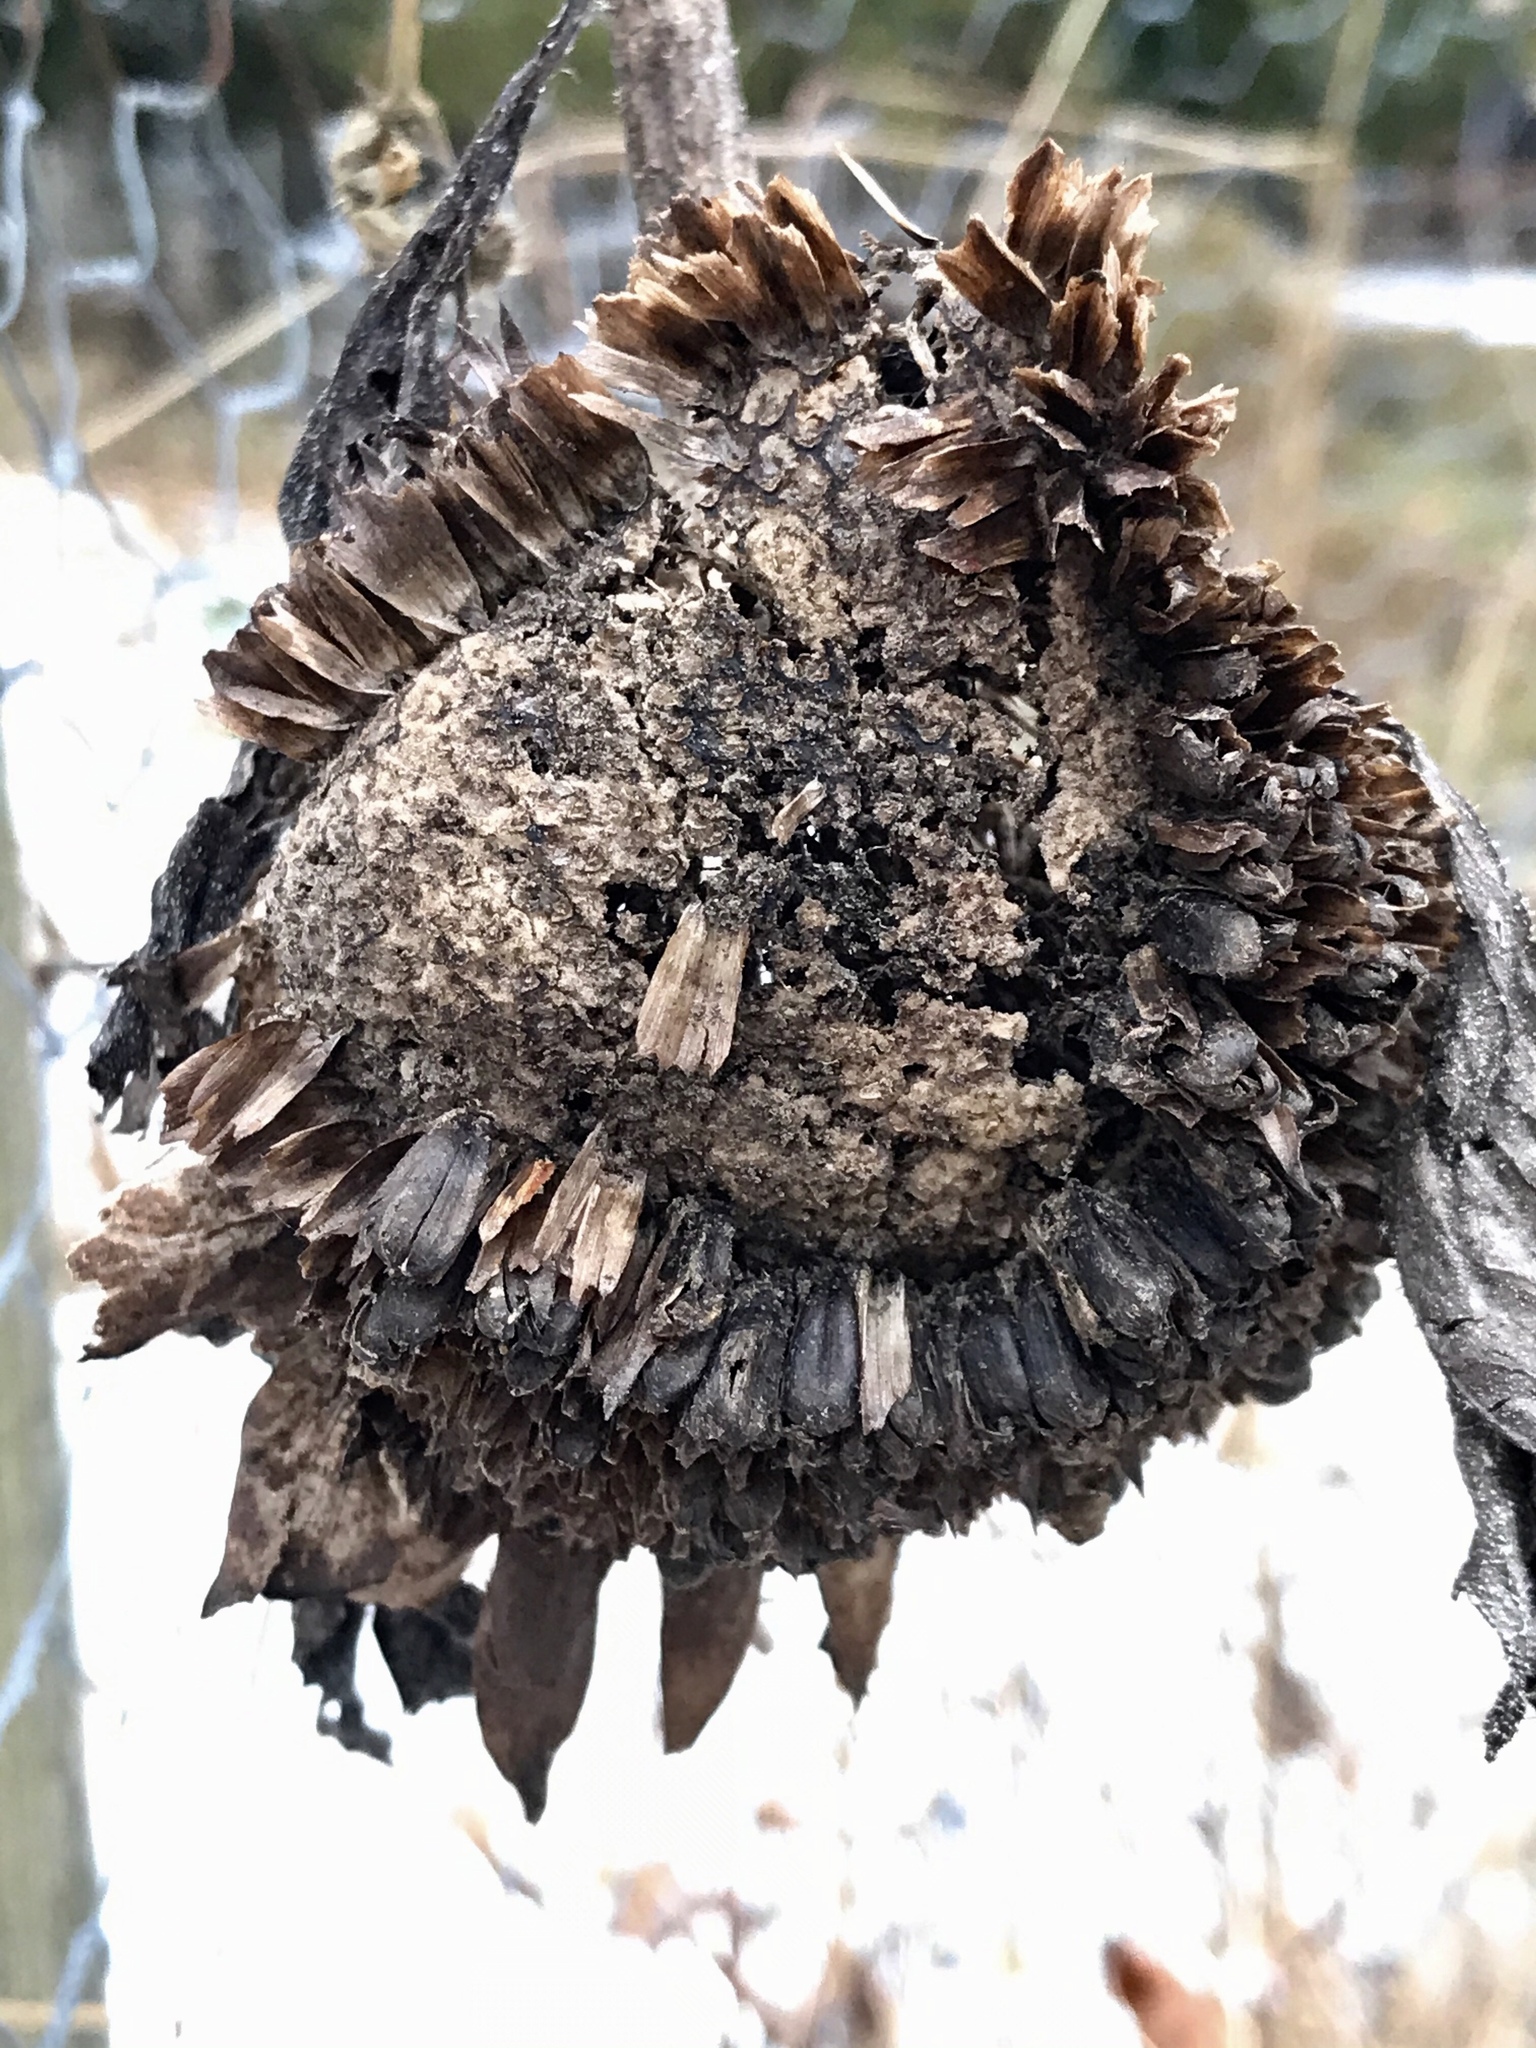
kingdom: Plantae
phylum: Tracheophyta
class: Magnoliopsida
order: Asterales
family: Asteraceae
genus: Helianthus
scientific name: Helianthus annuus
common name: Sunflower
